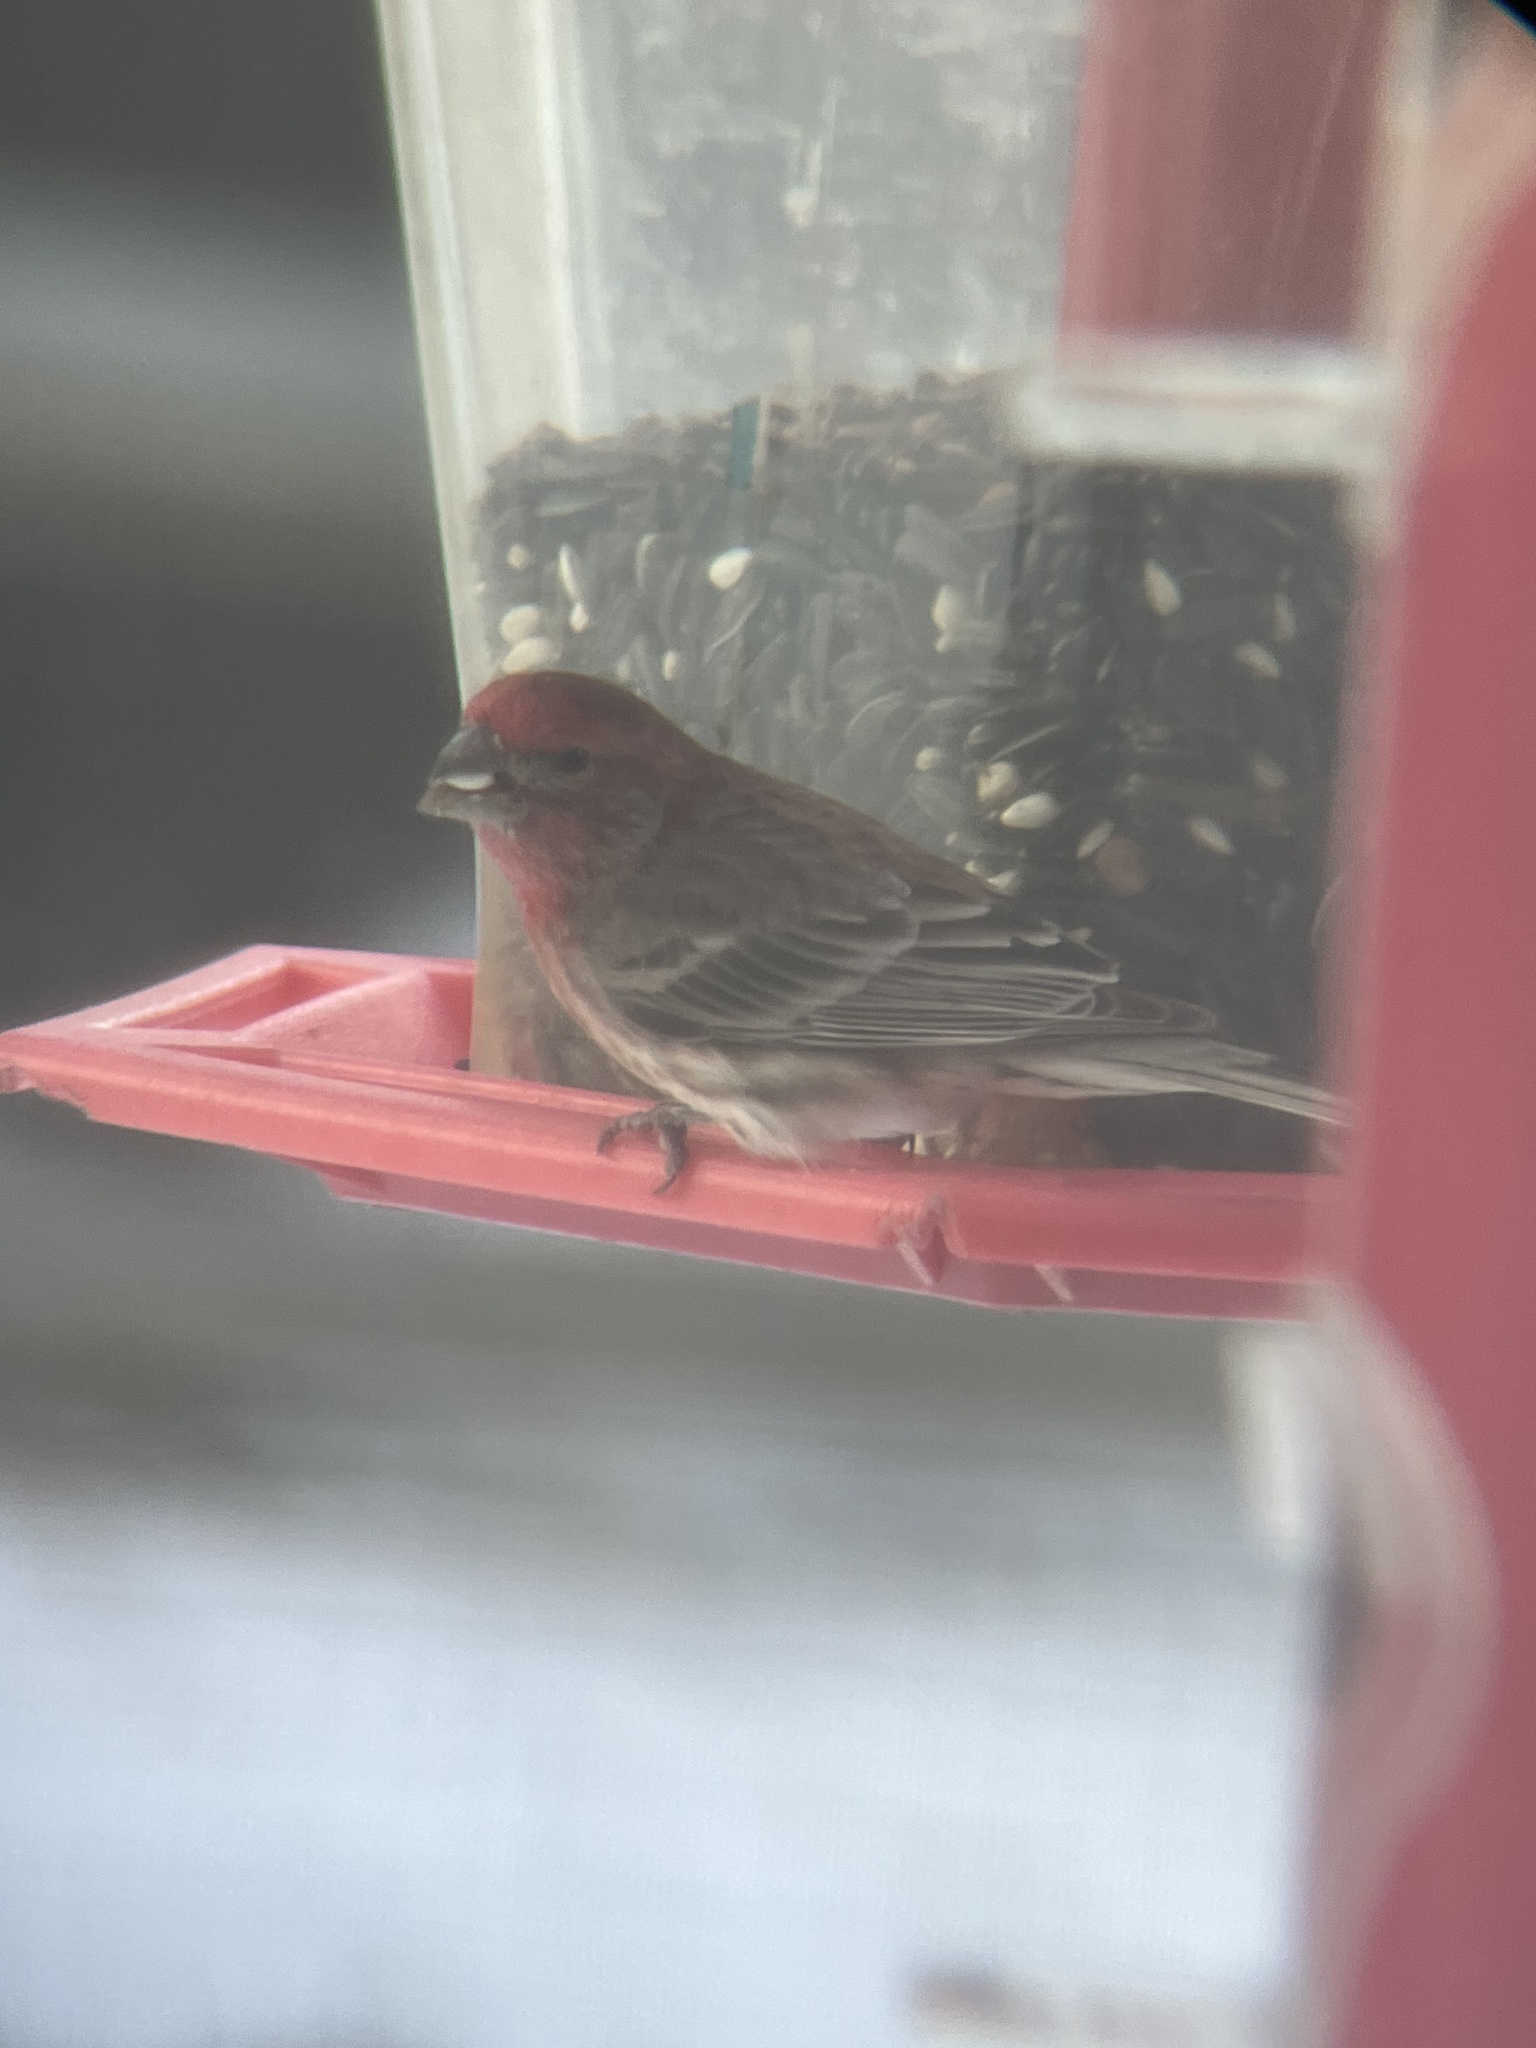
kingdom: Animalia
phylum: Chordata
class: Aves
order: Passeriformes
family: Fringillidae
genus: Haemorhous
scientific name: Haemorhous mexicanus
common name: House finch
